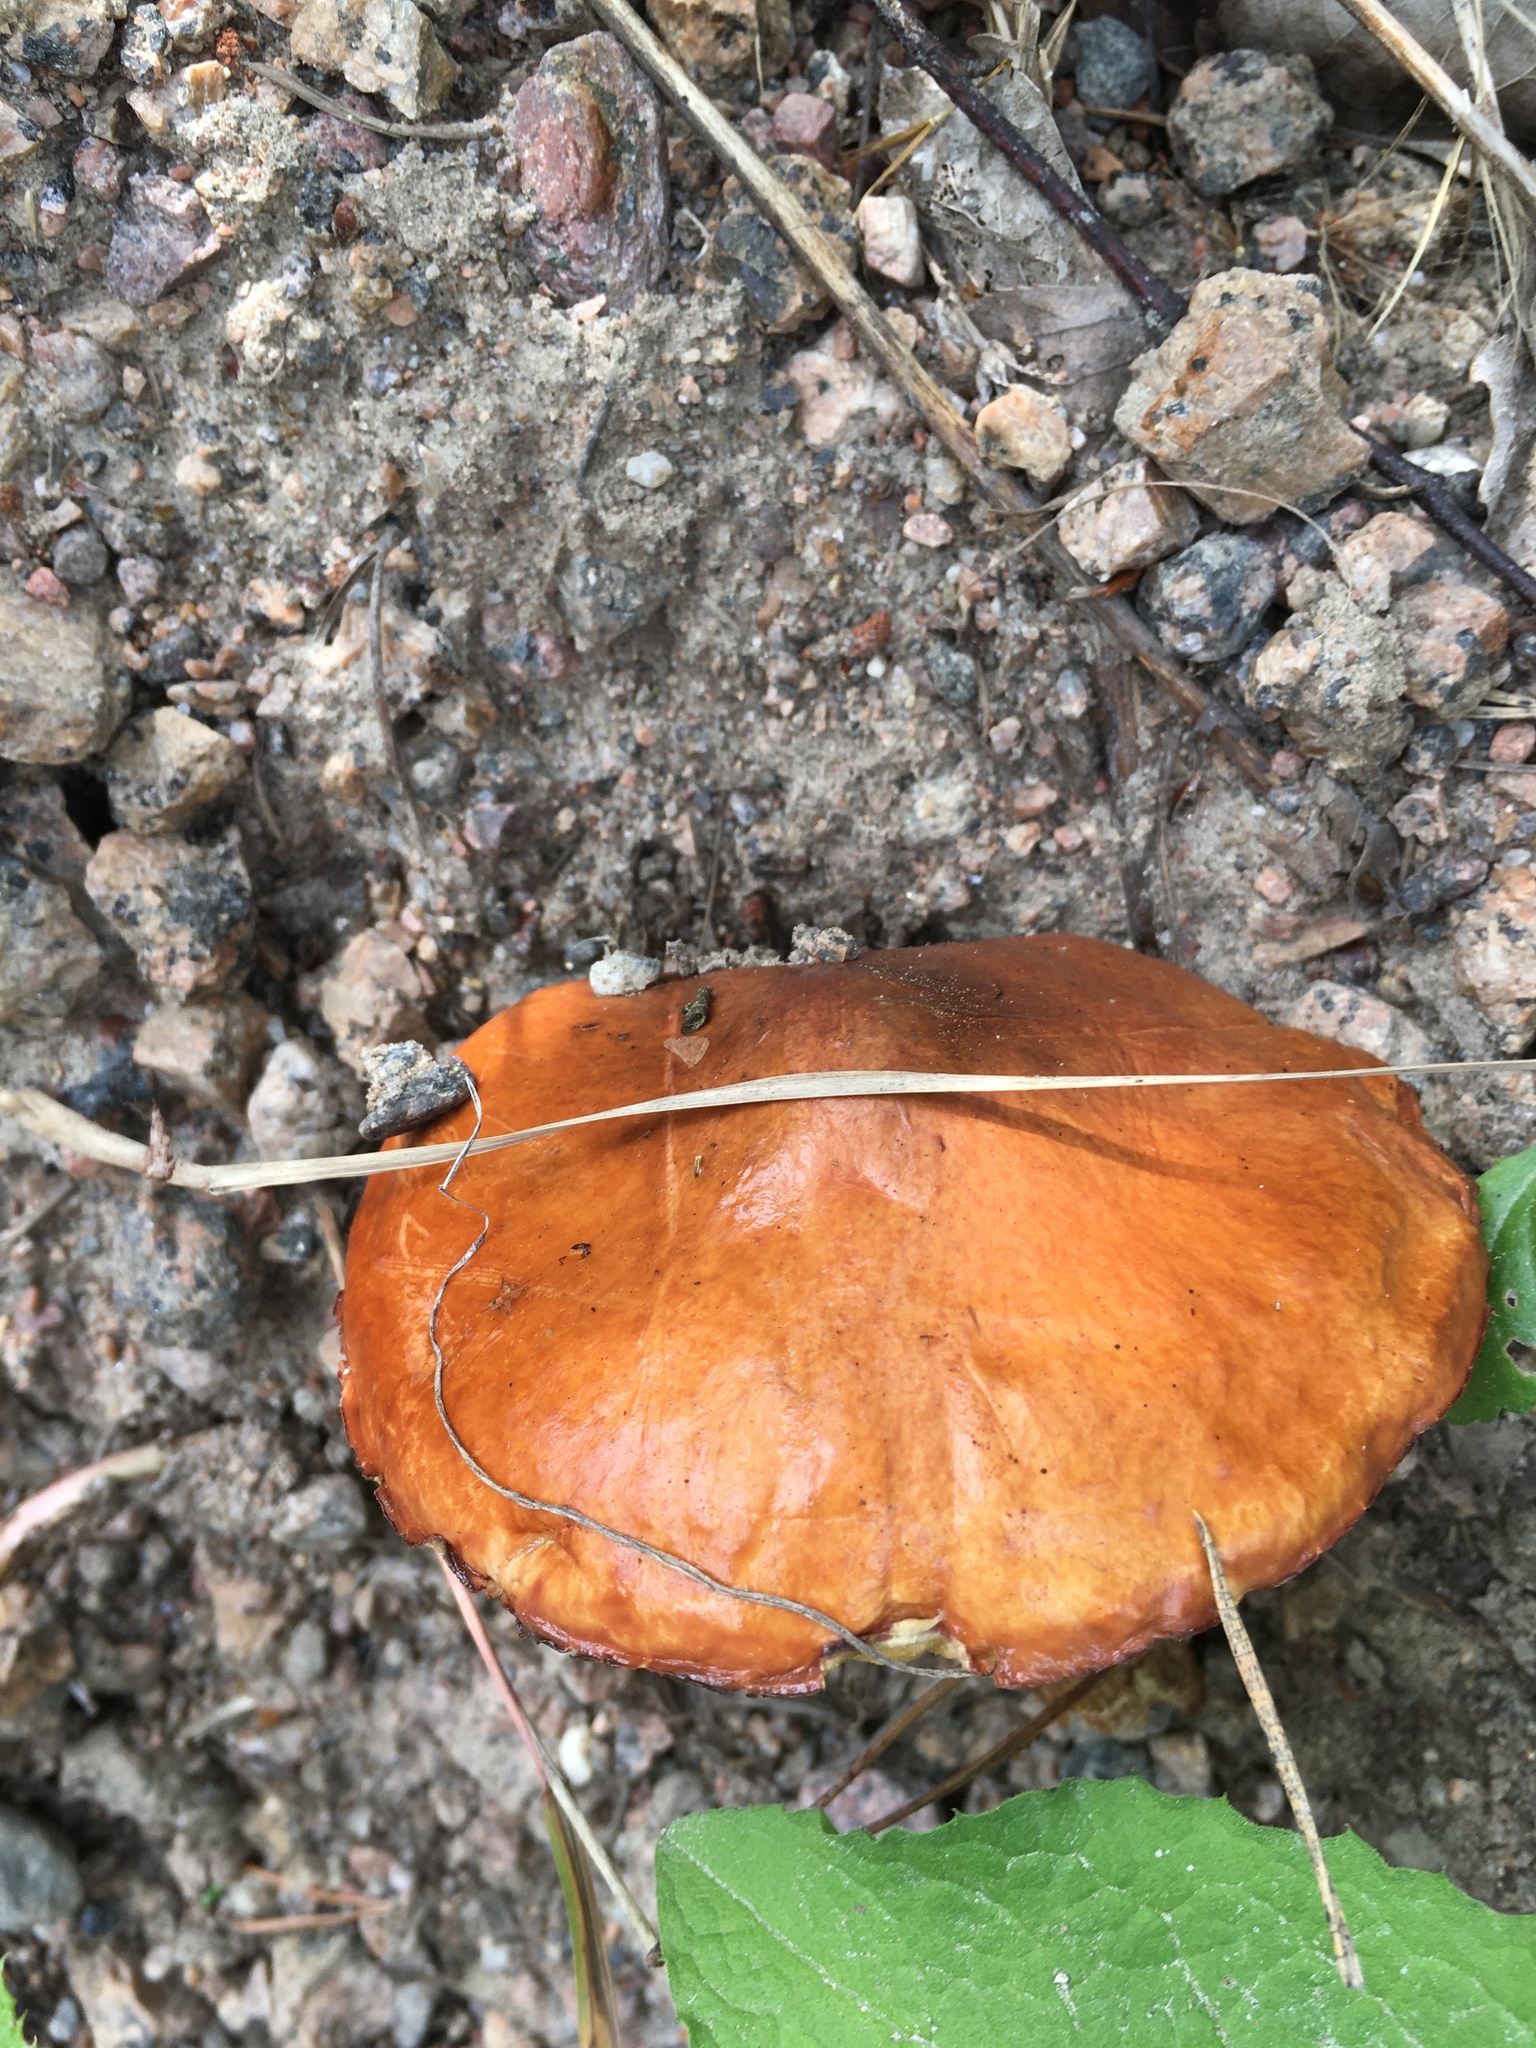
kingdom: Fungi
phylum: Basidiomycota
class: Agaricomycetes
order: Boletales
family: Suillaceae
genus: Suillus
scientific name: Suillus grevillei
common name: Larch bolete
